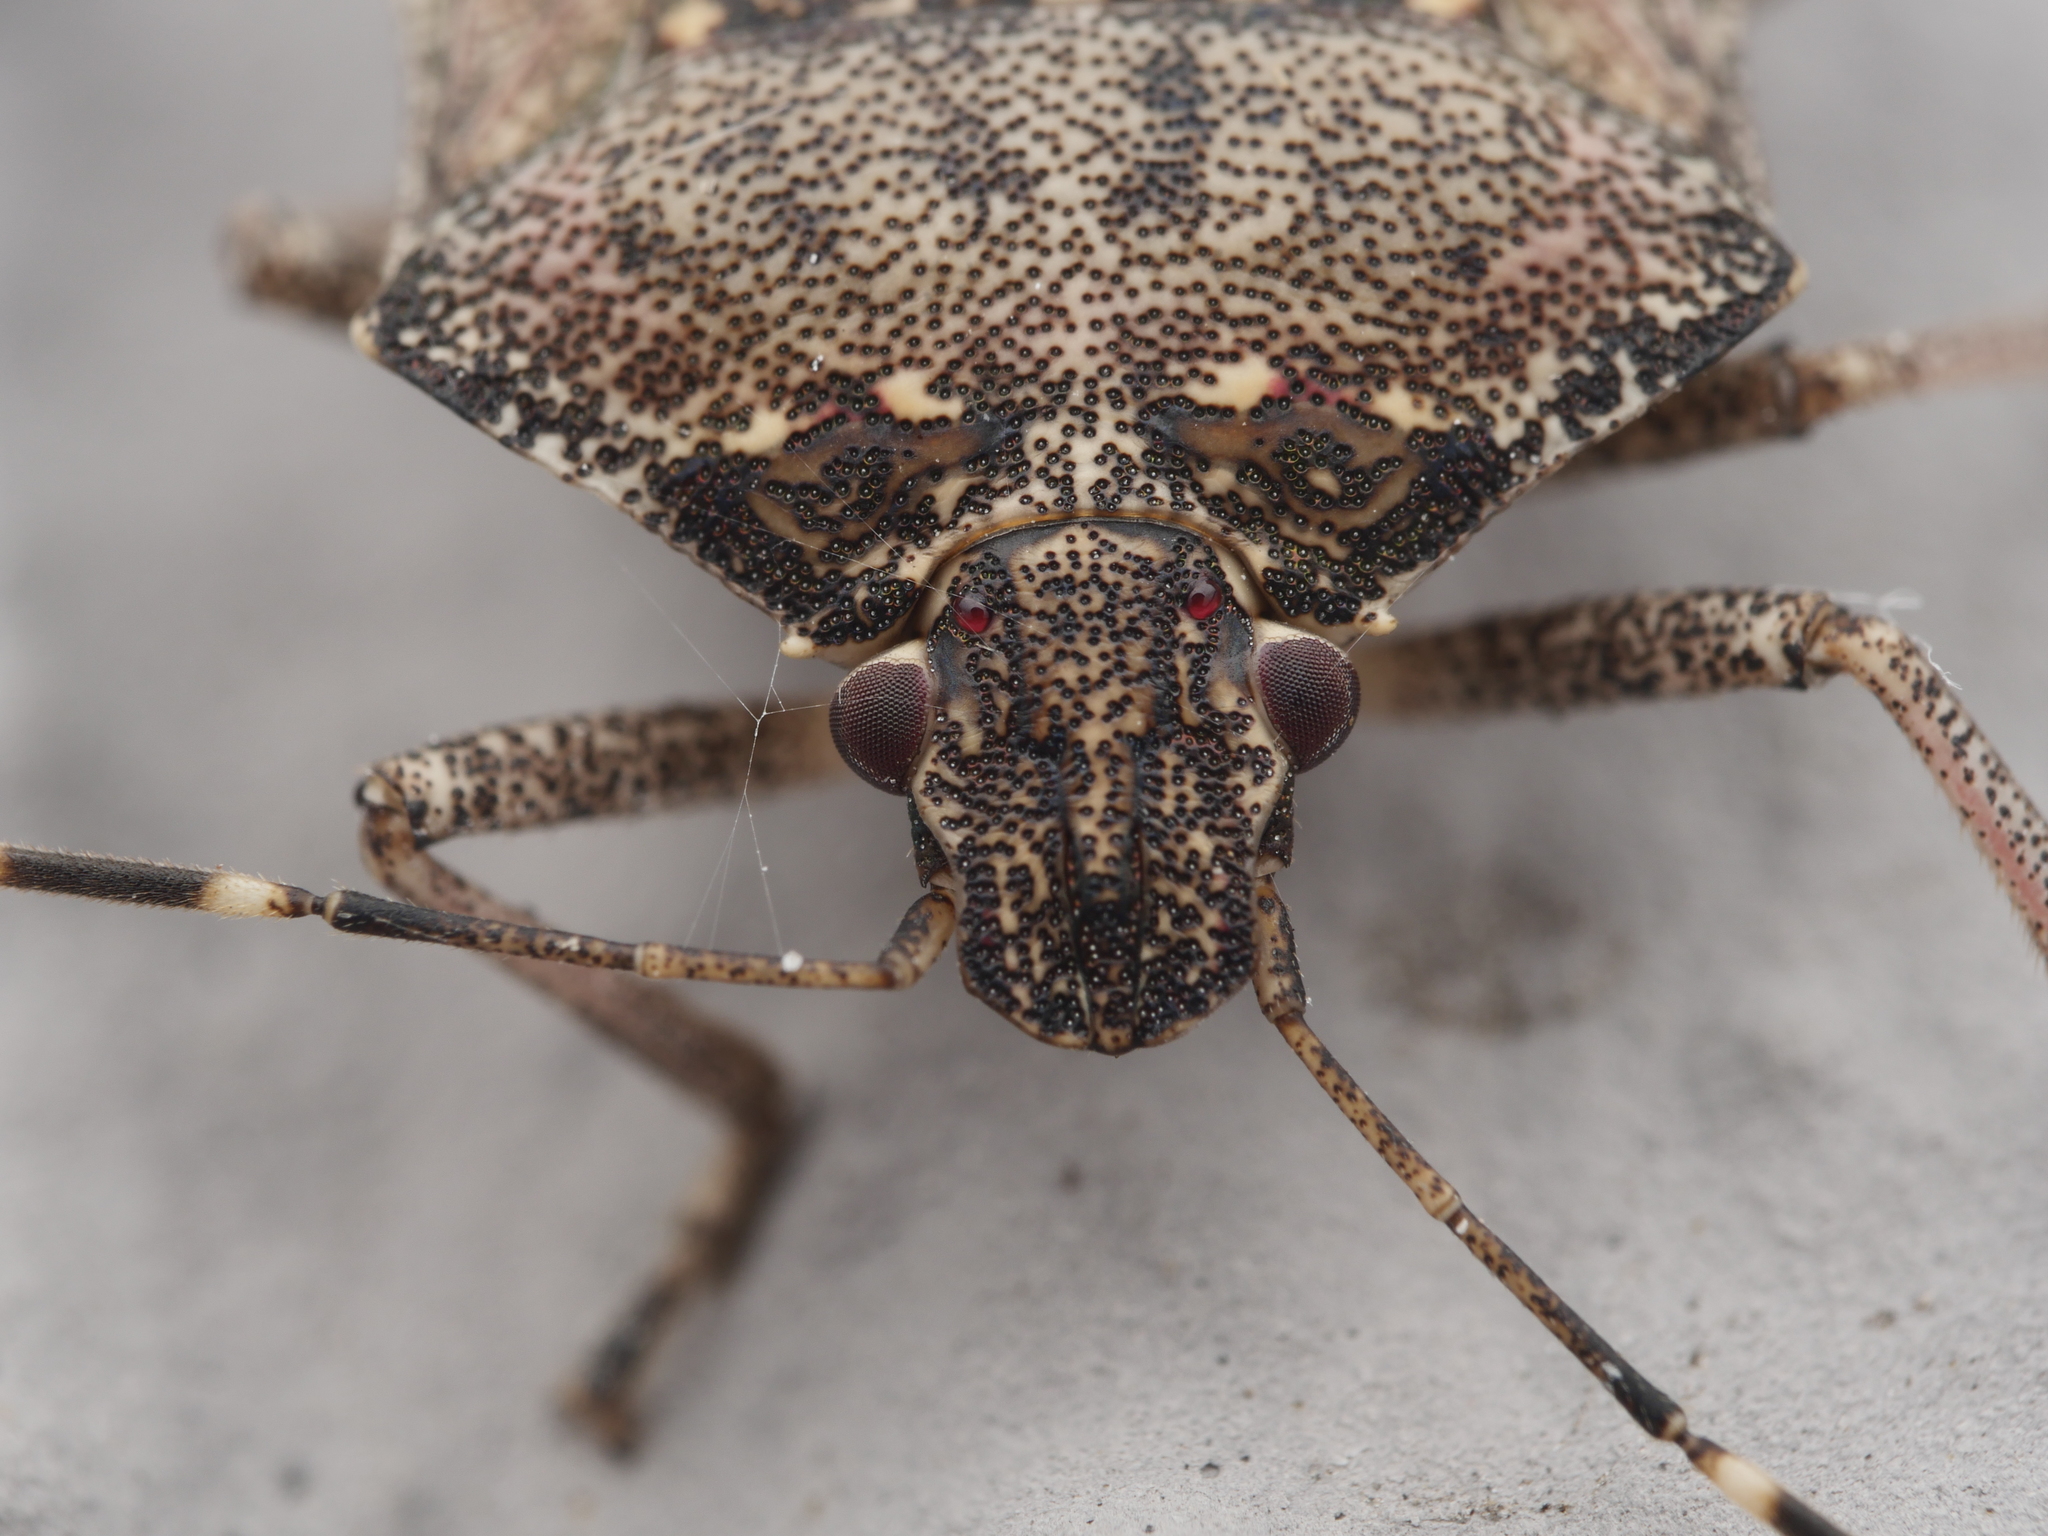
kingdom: Animalia
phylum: Arthropoda
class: Insecta
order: Hemiptera
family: Pentatomidae
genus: Halyomorpha
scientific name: Halyomorpha halys
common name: Brown marmorated stink bug
